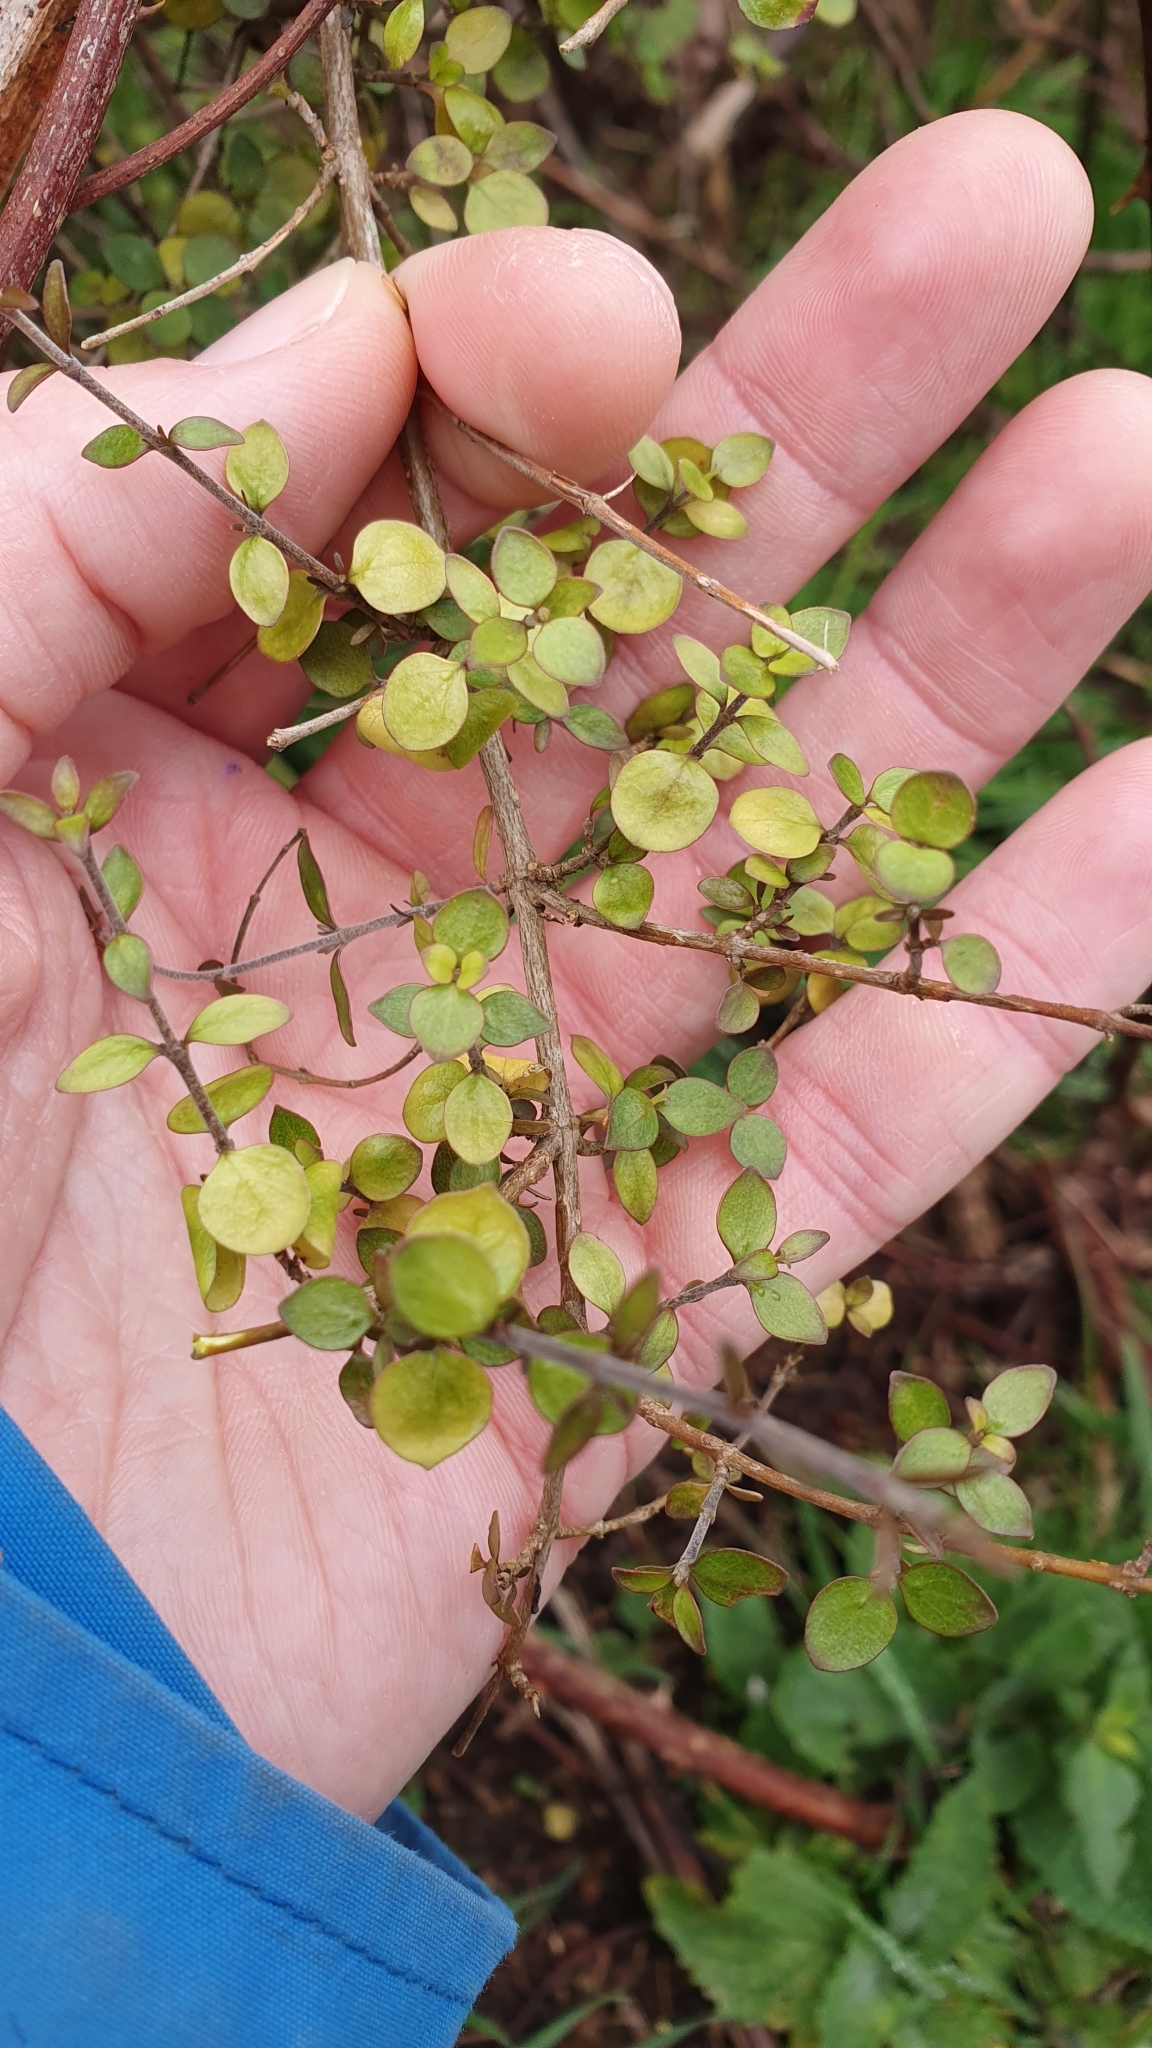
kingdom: Plantae
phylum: Tracheophyta
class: Magnoliopsida
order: Gentianales
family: Rubiaceae
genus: Coprosma
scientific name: Coprosma rhamnoides
